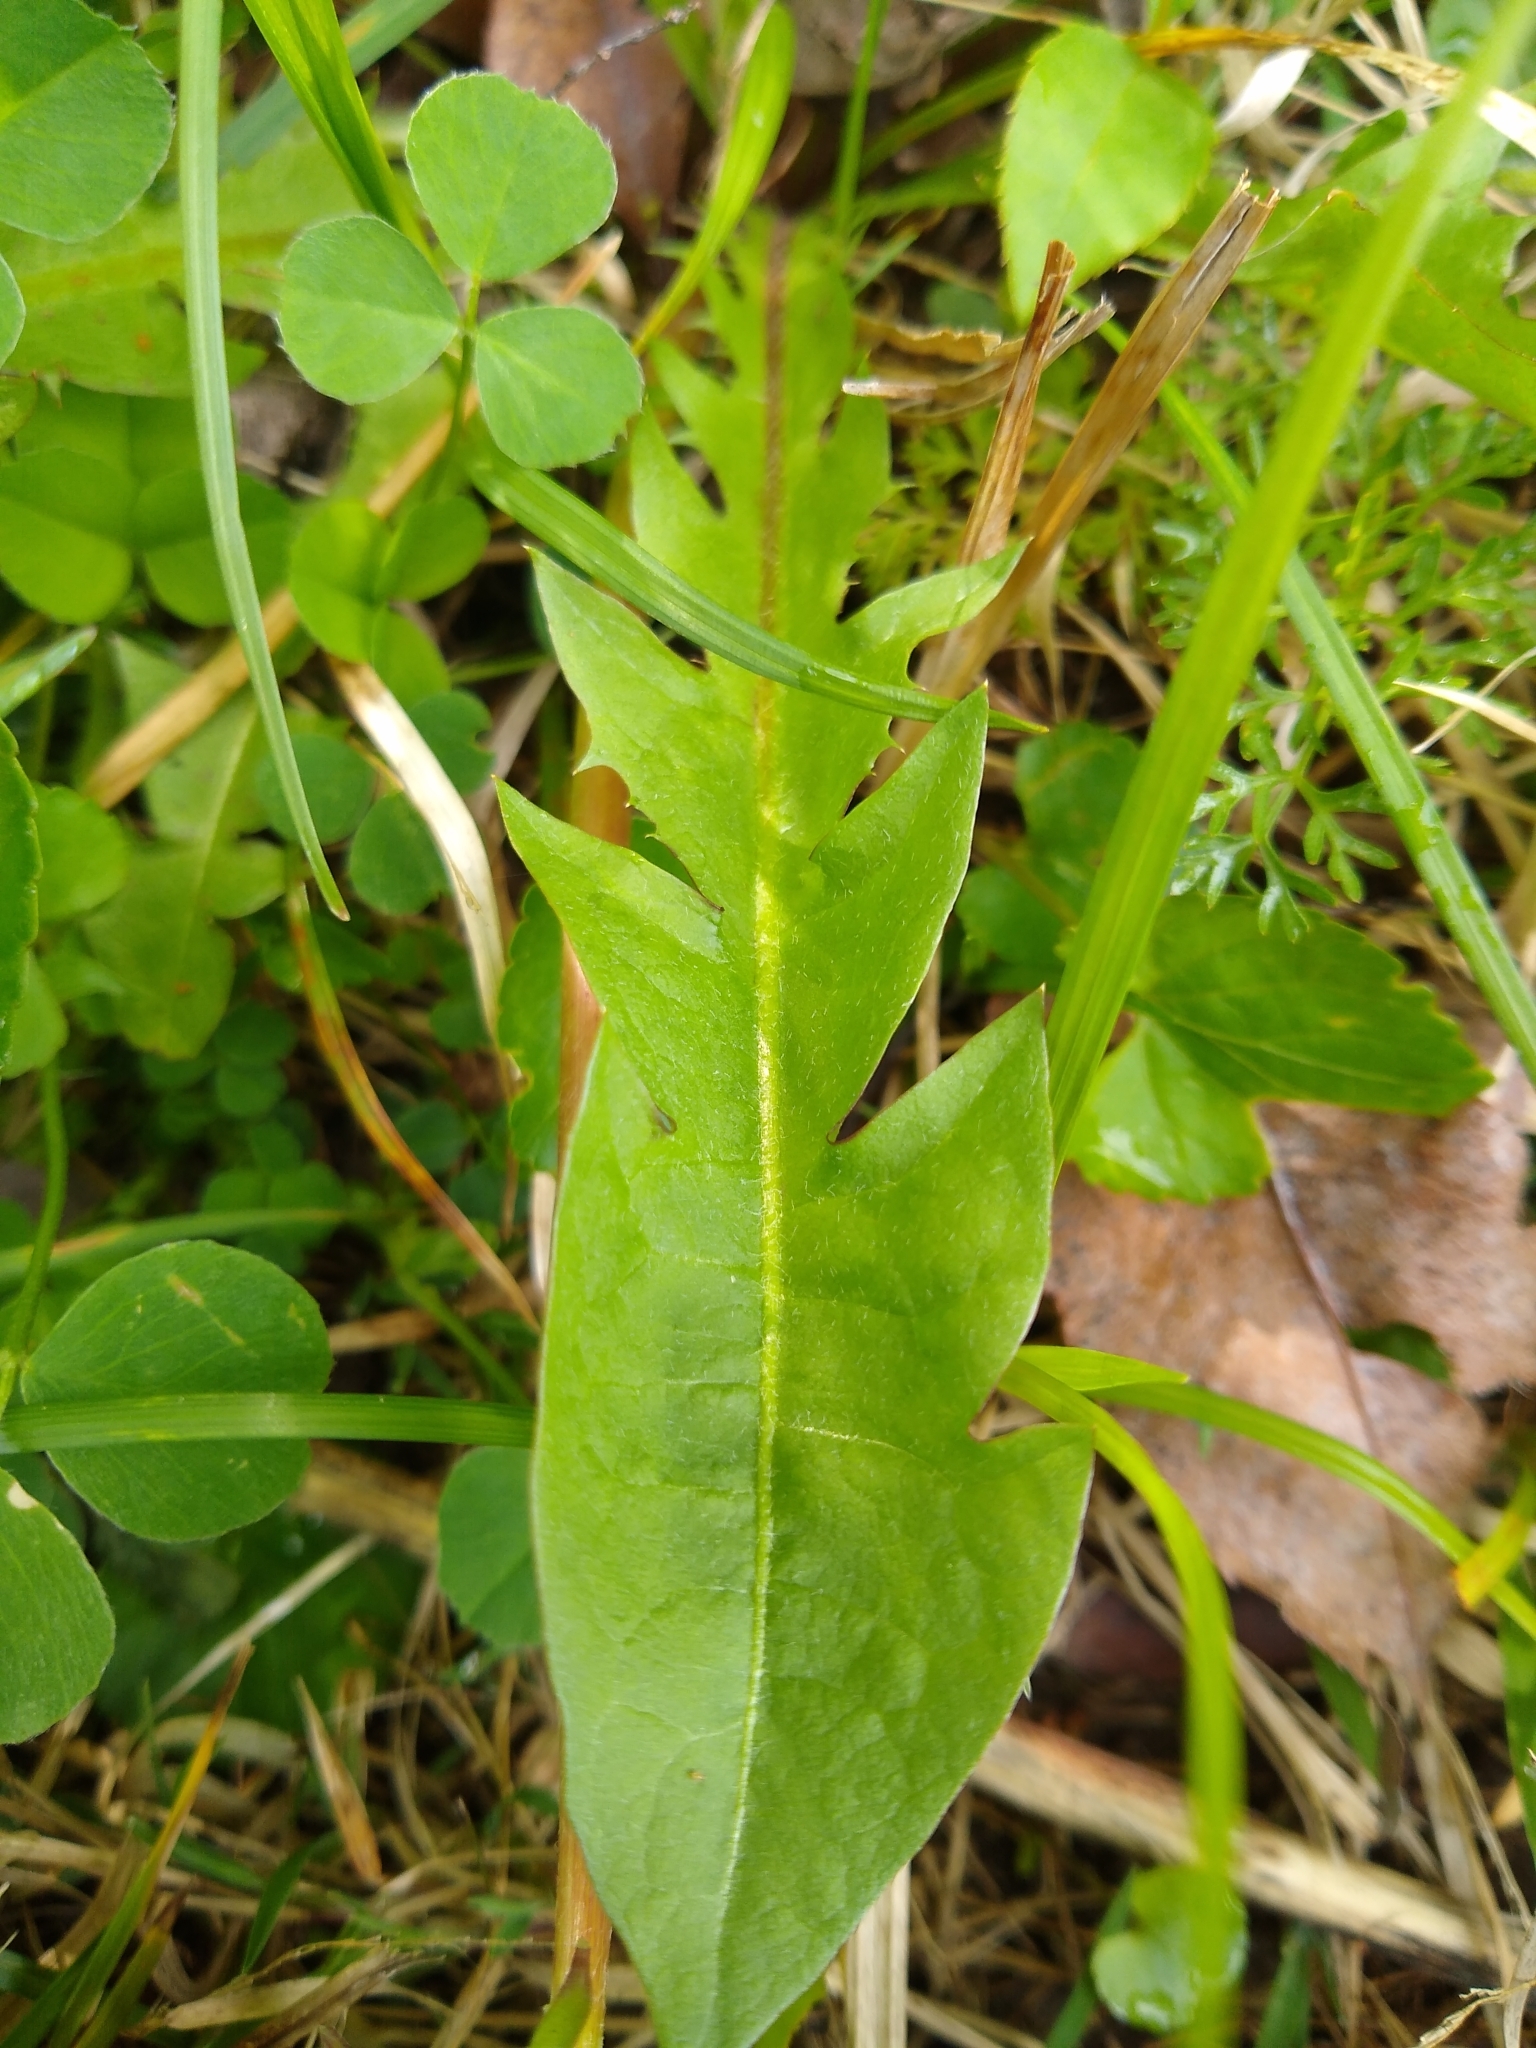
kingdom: Plantae
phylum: Tracheophyta
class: Magnoliopsida
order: Asterales
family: Asteraceae
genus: Taraxacum
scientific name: Taraxacum officinale
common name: Common dandelion
